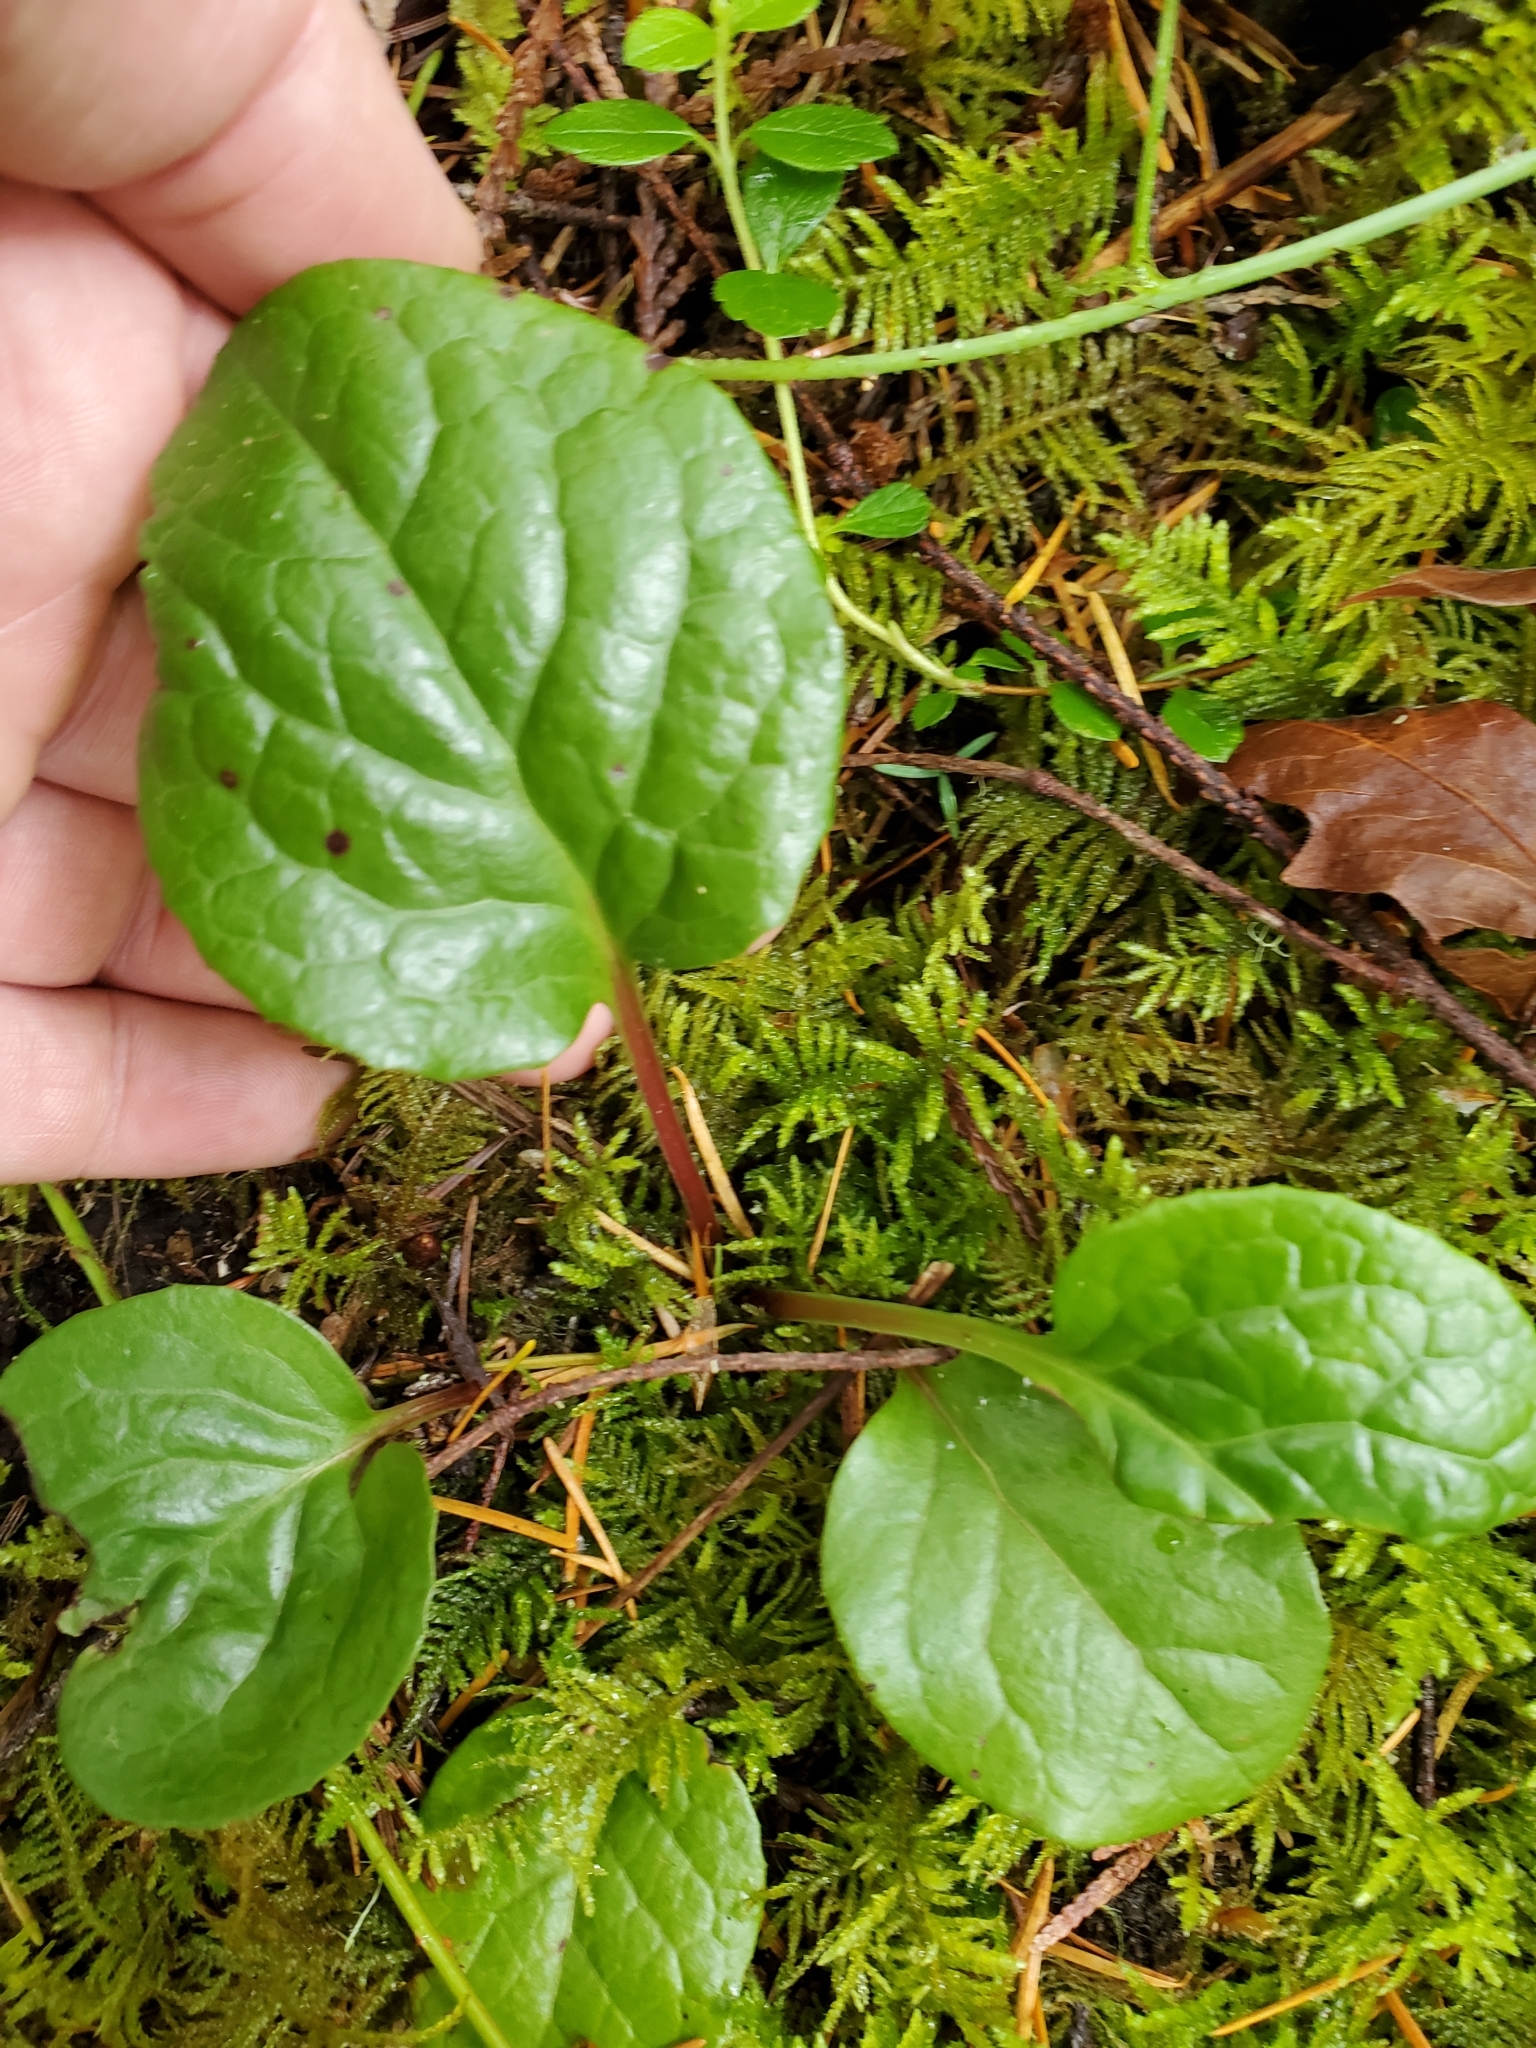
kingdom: Plantae
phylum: Tracheophyta
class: Magnoliopsida
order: Ericales
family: Ericaceae
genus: Pyrola
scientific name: Pyrola asarifolia
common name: Bog wintergreen
